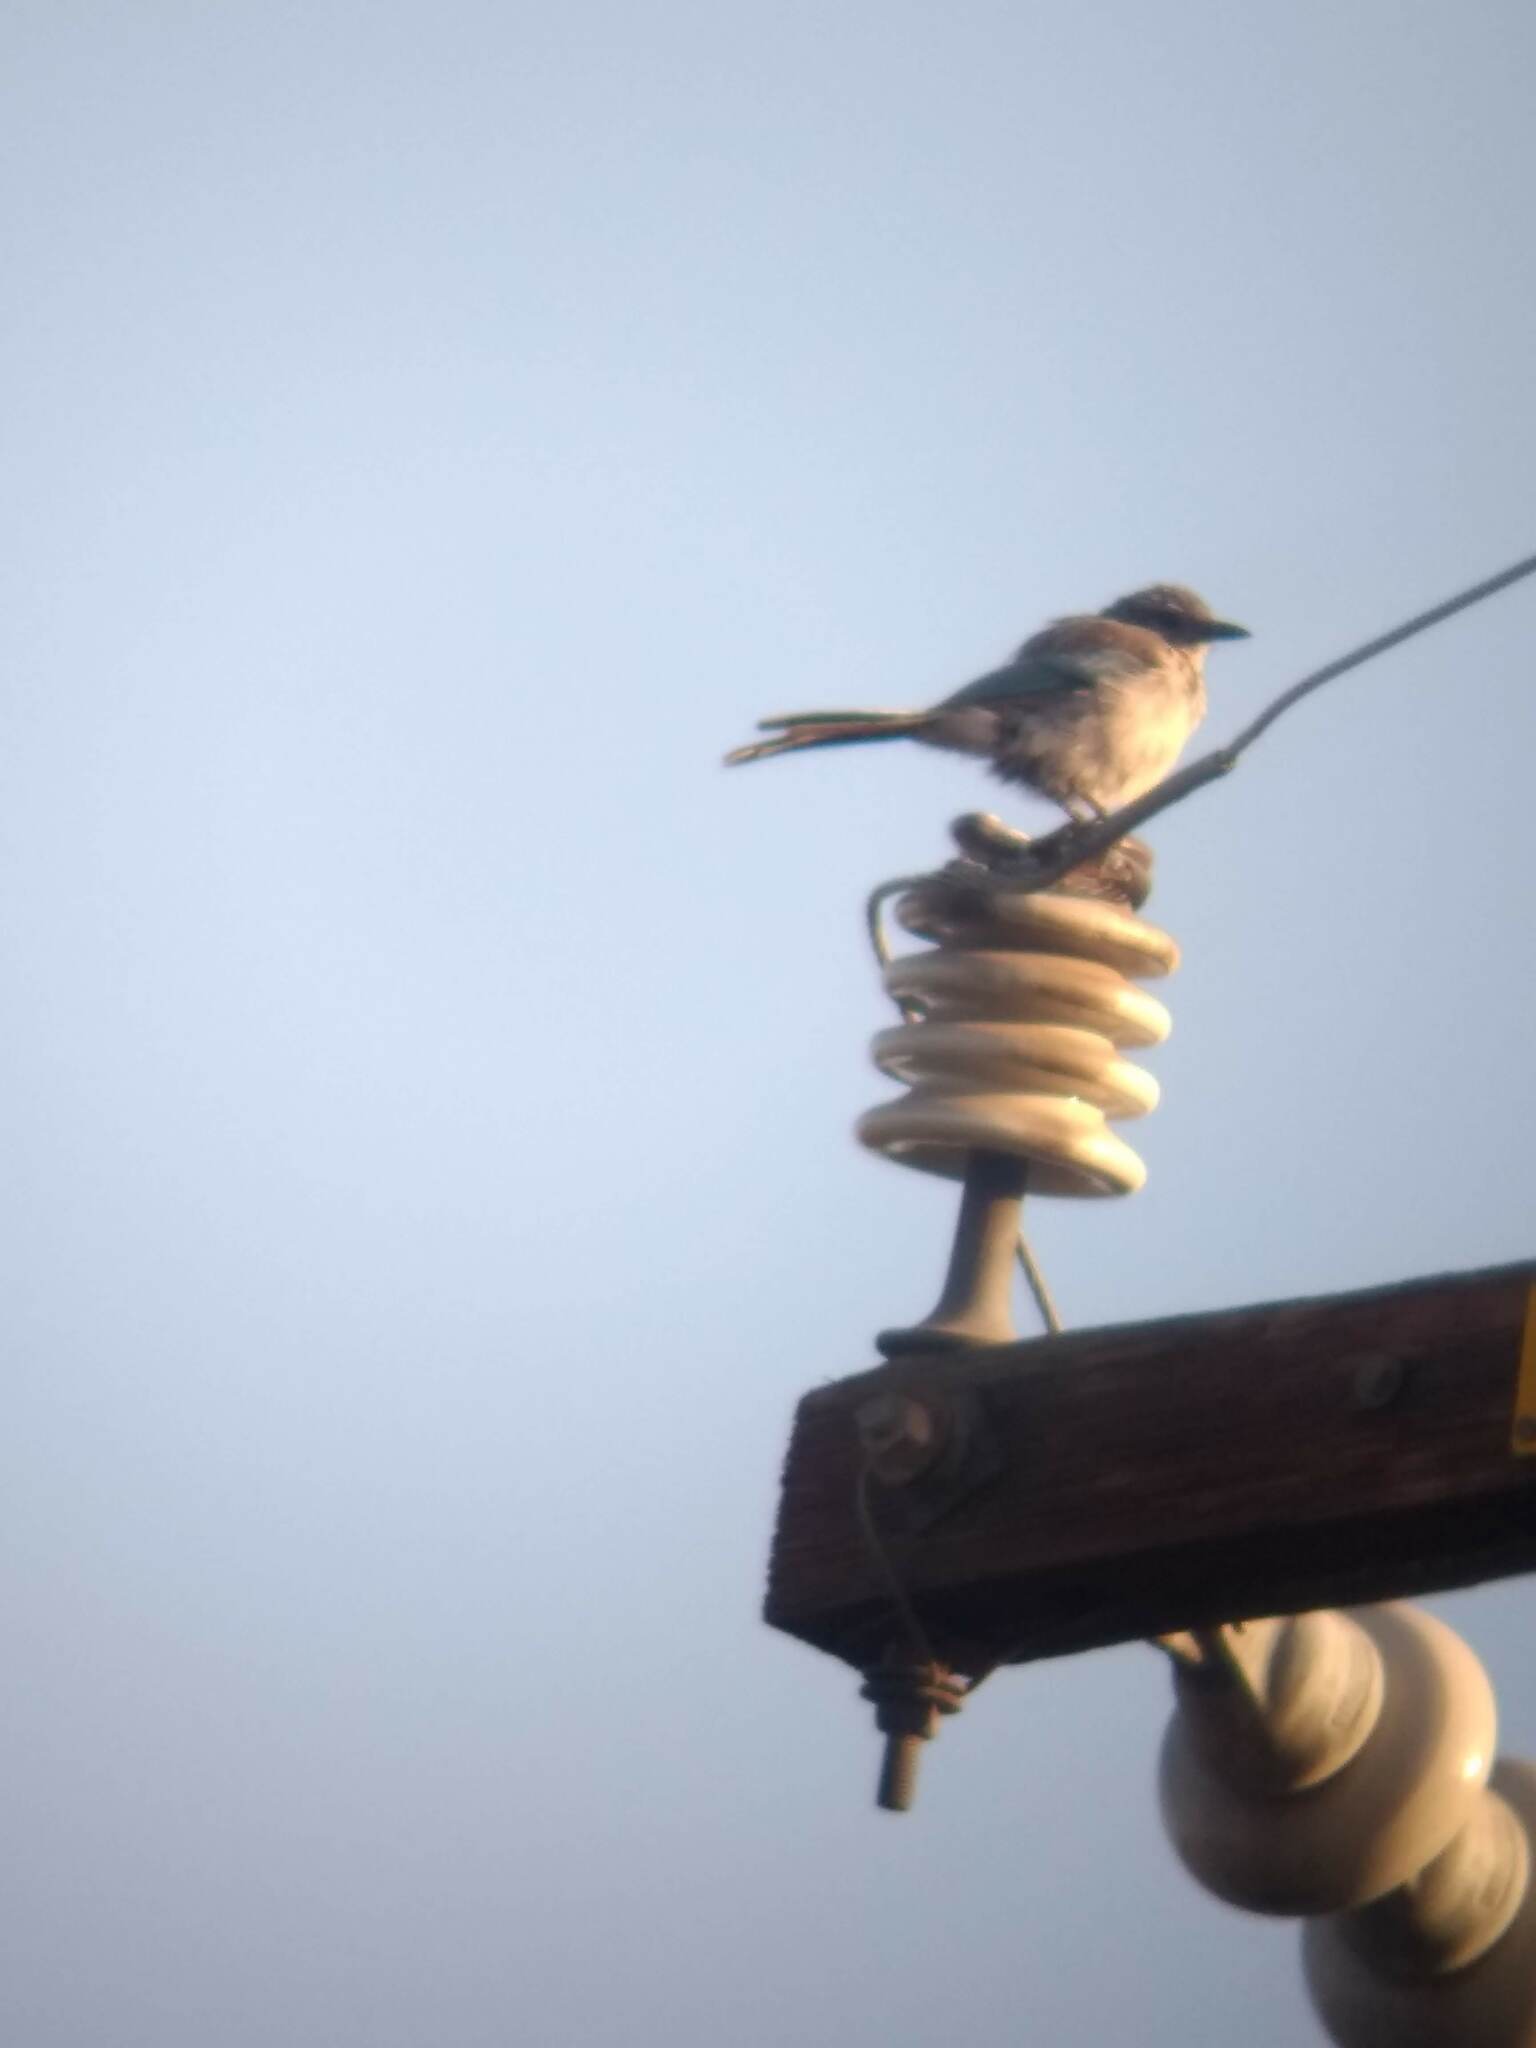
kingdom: Animalia
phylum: Chordata
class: Aves
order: Passeriformes
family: Corvidae
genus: Aphelocoma
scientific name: Aphelocoma californica
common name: California scrub-jay
